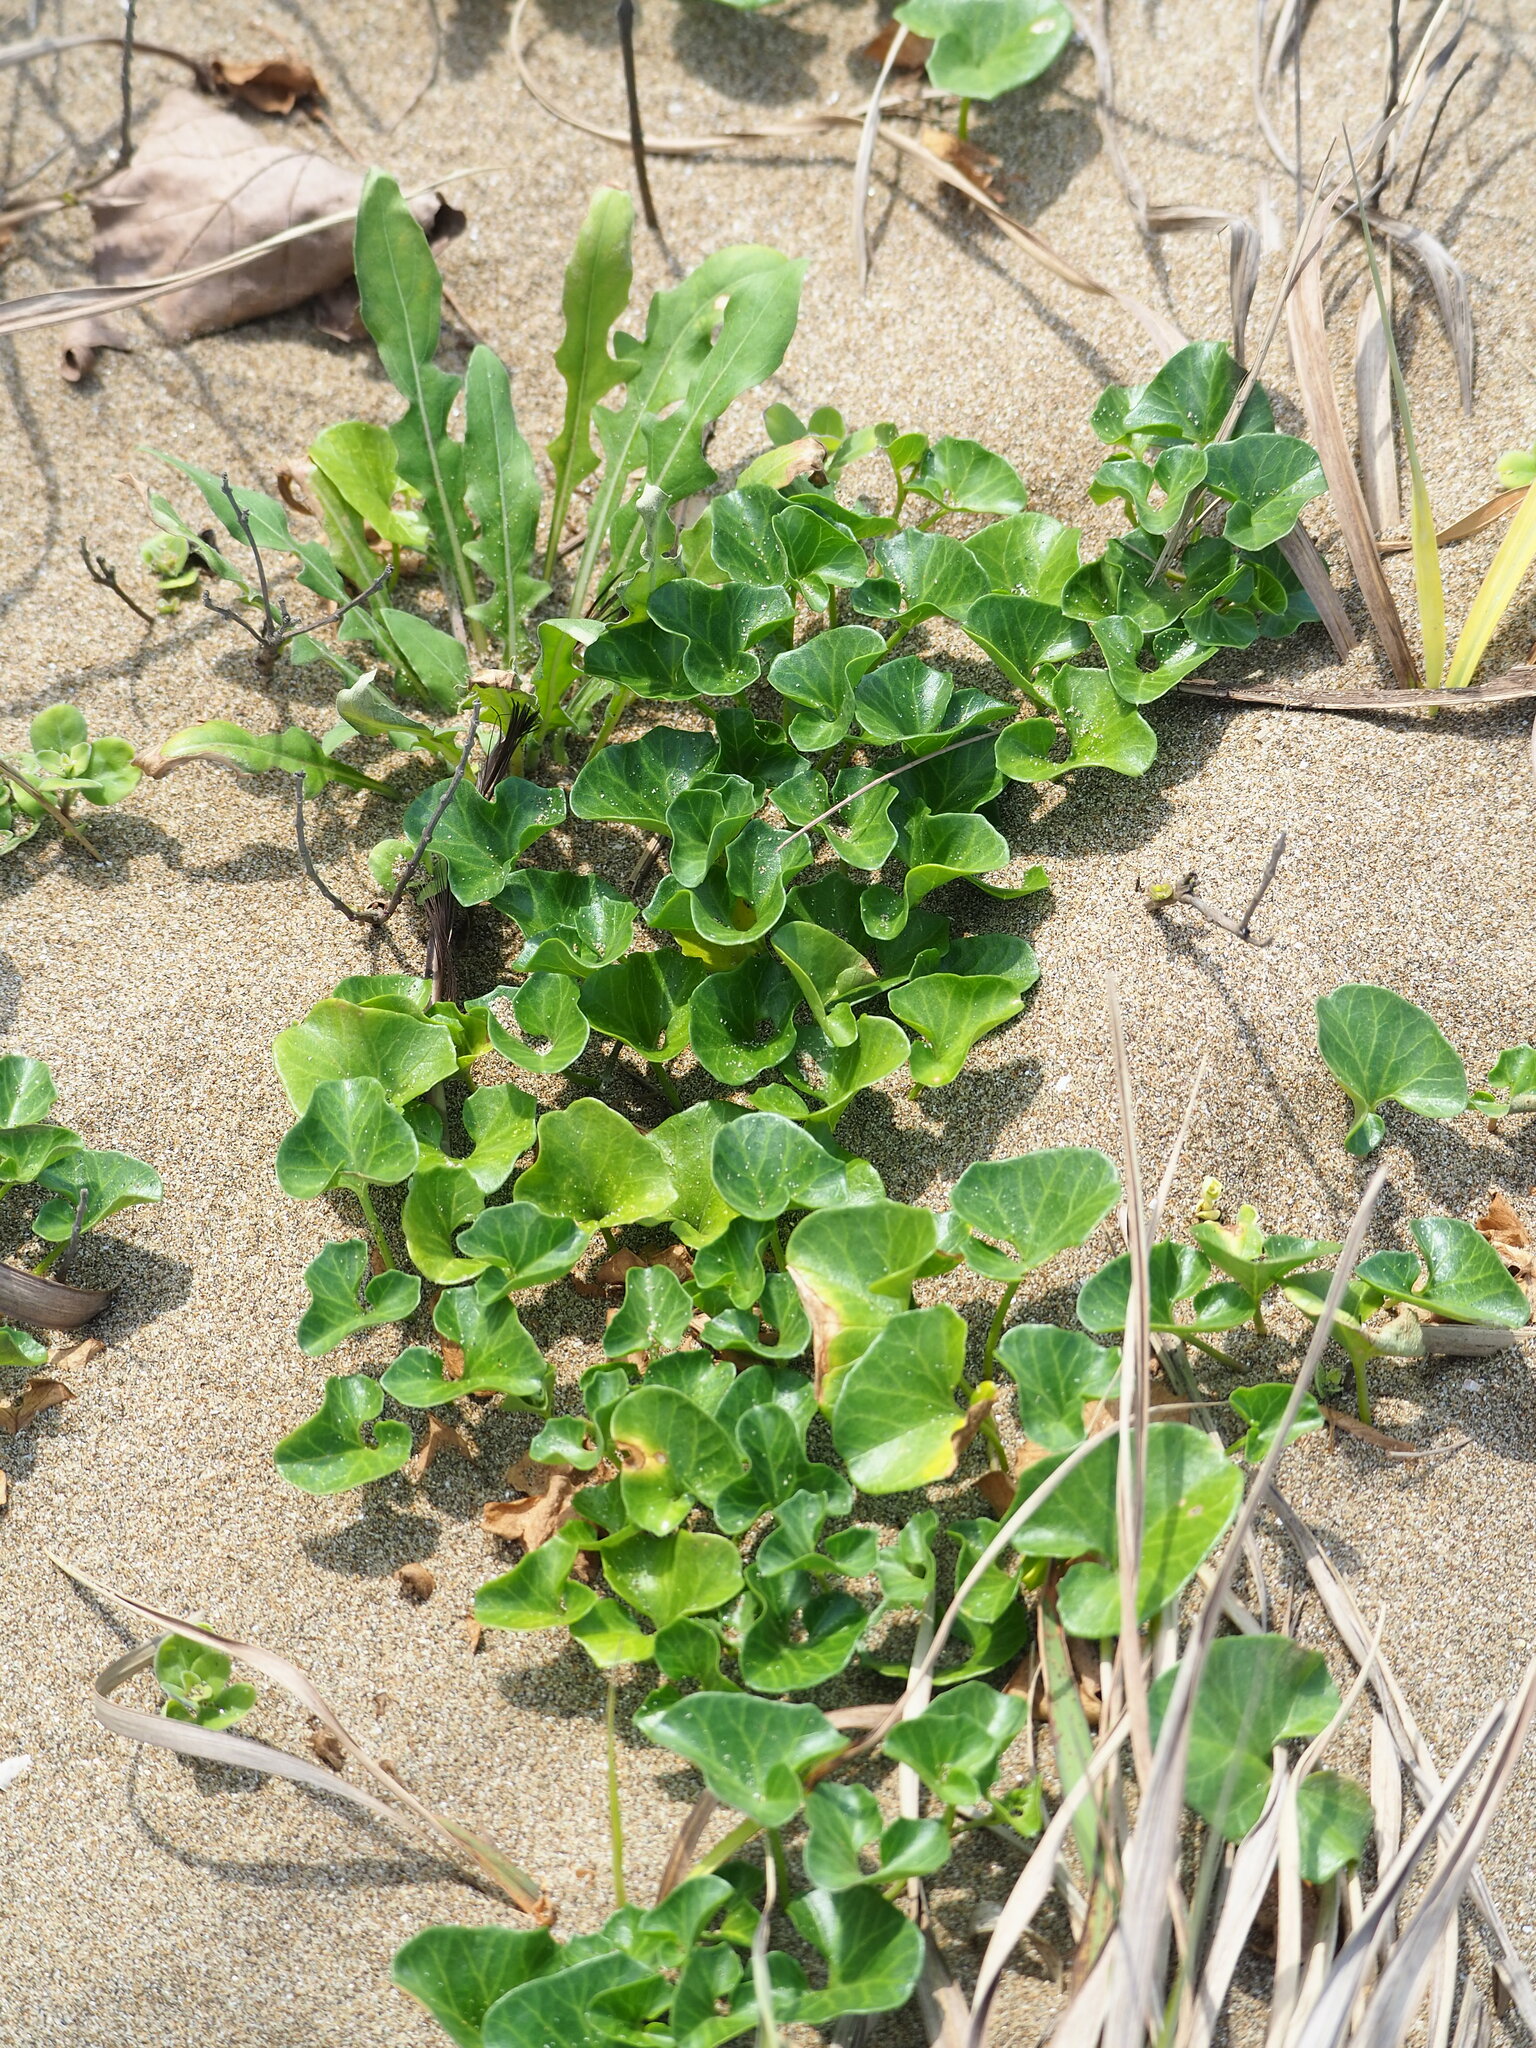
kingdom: Plantae
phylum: Tracheophyta
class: Magnoliopsida
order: Solanales
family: Convolvulaceae
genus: Calystegia
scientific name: Calystegia soldanella
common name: Sea bindweed
